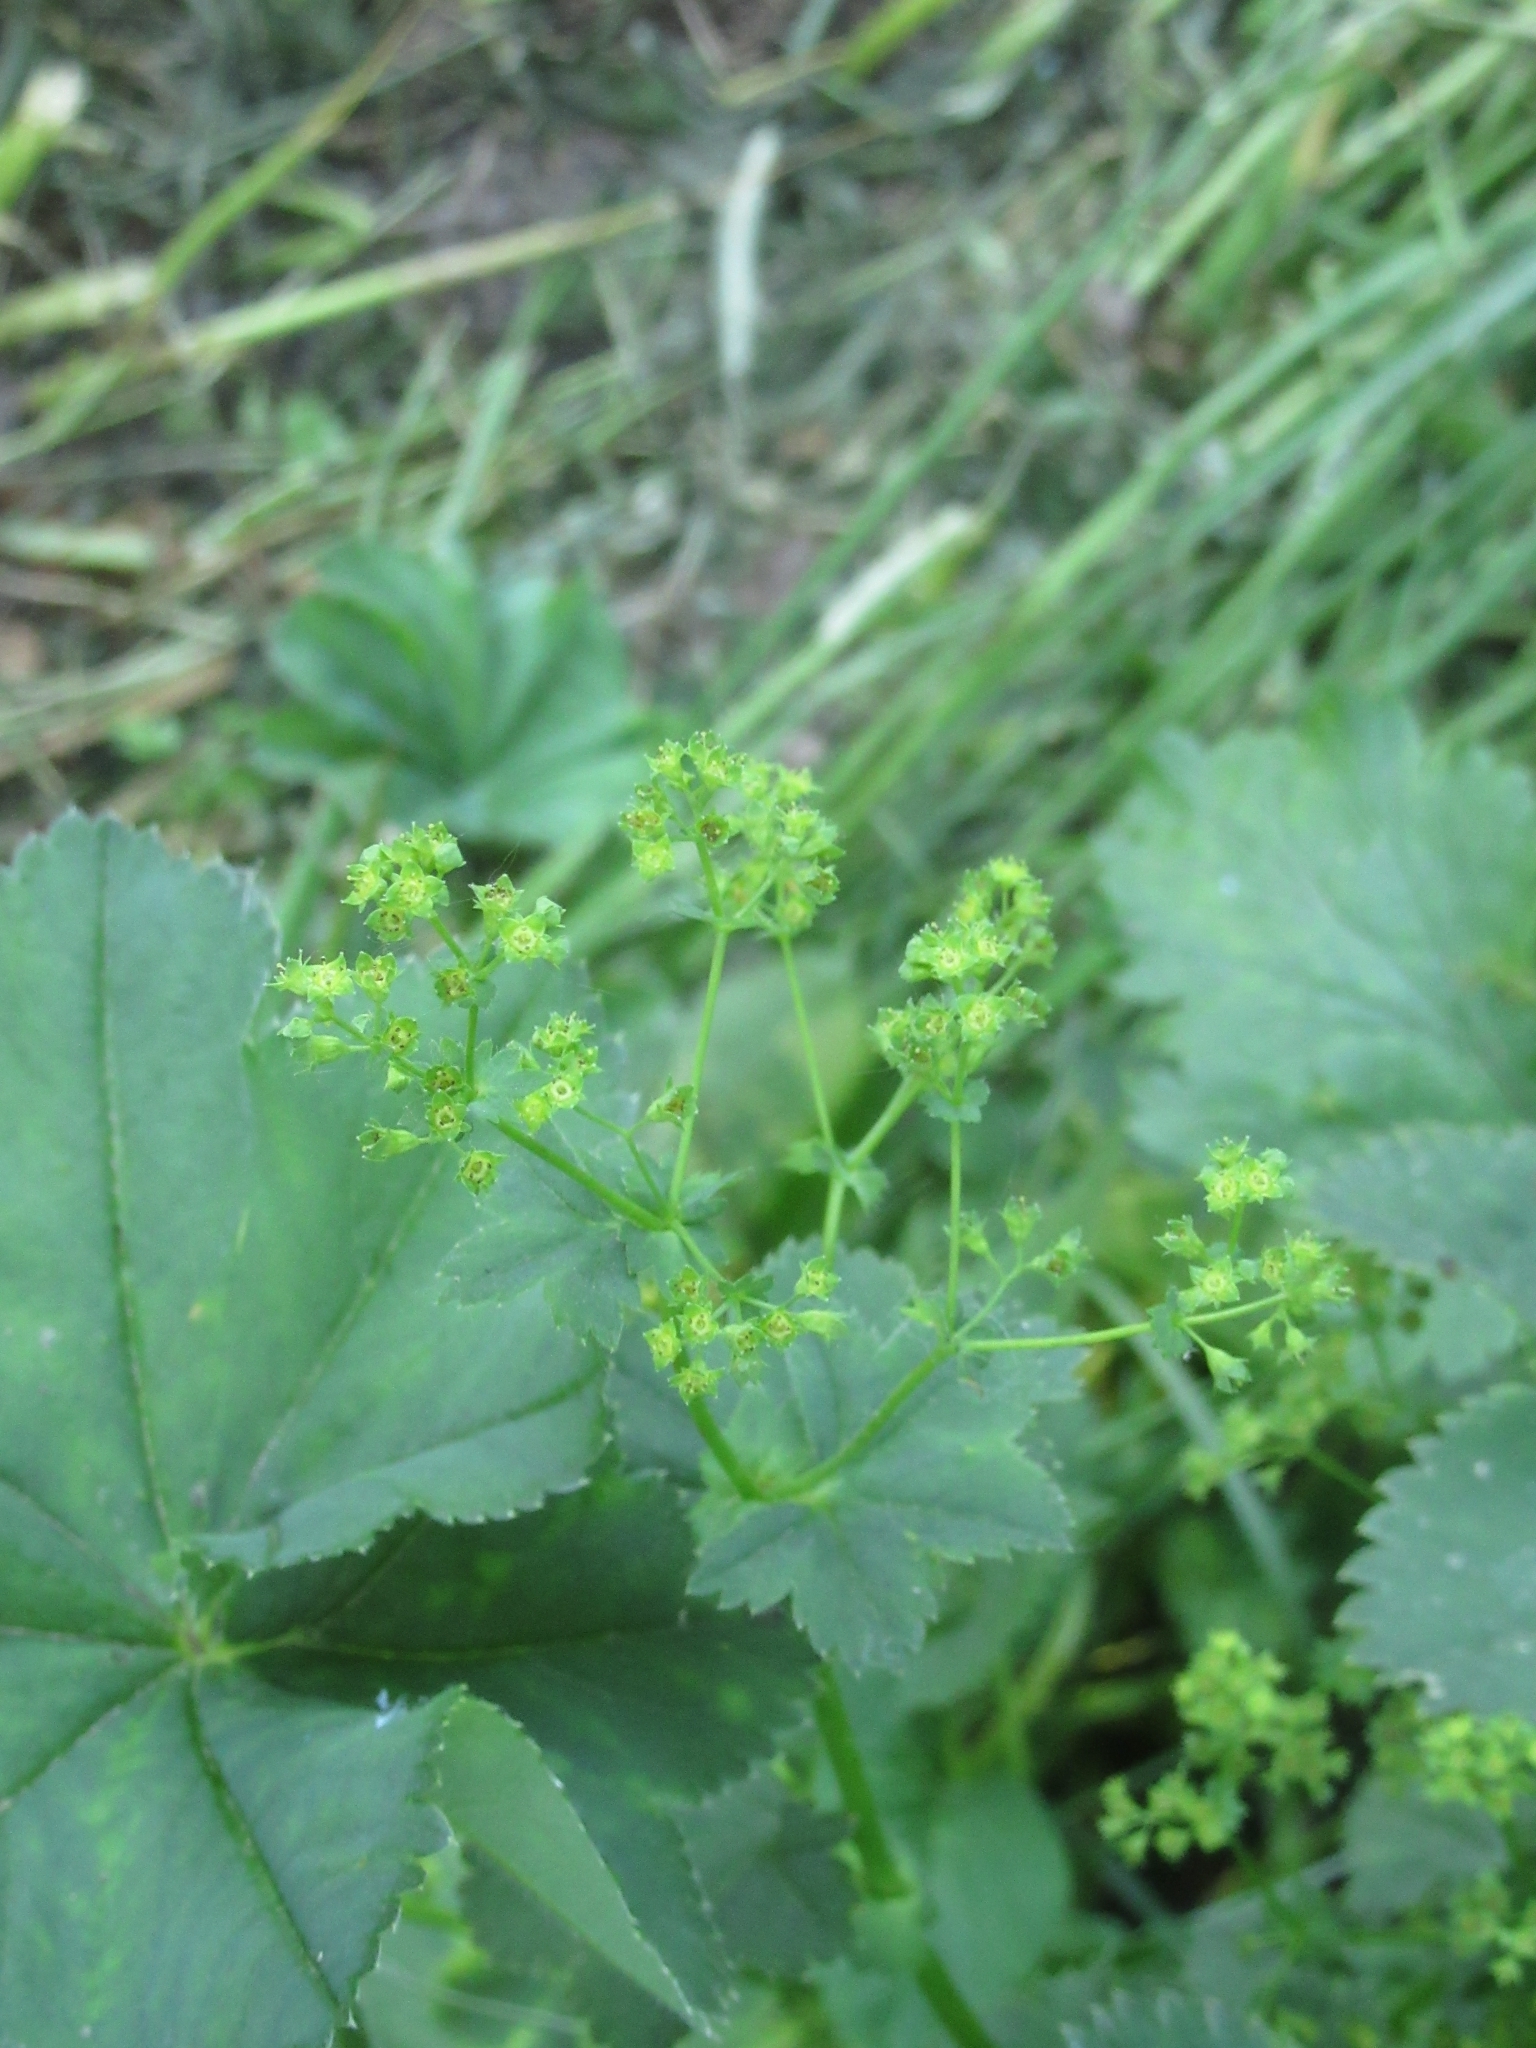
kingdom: Plantae
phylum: Tracheophyta
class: Magnoliopsida
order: Rosales
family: Rosaceae
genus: Alchemilla
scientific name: Alchemilla cymatophylla
